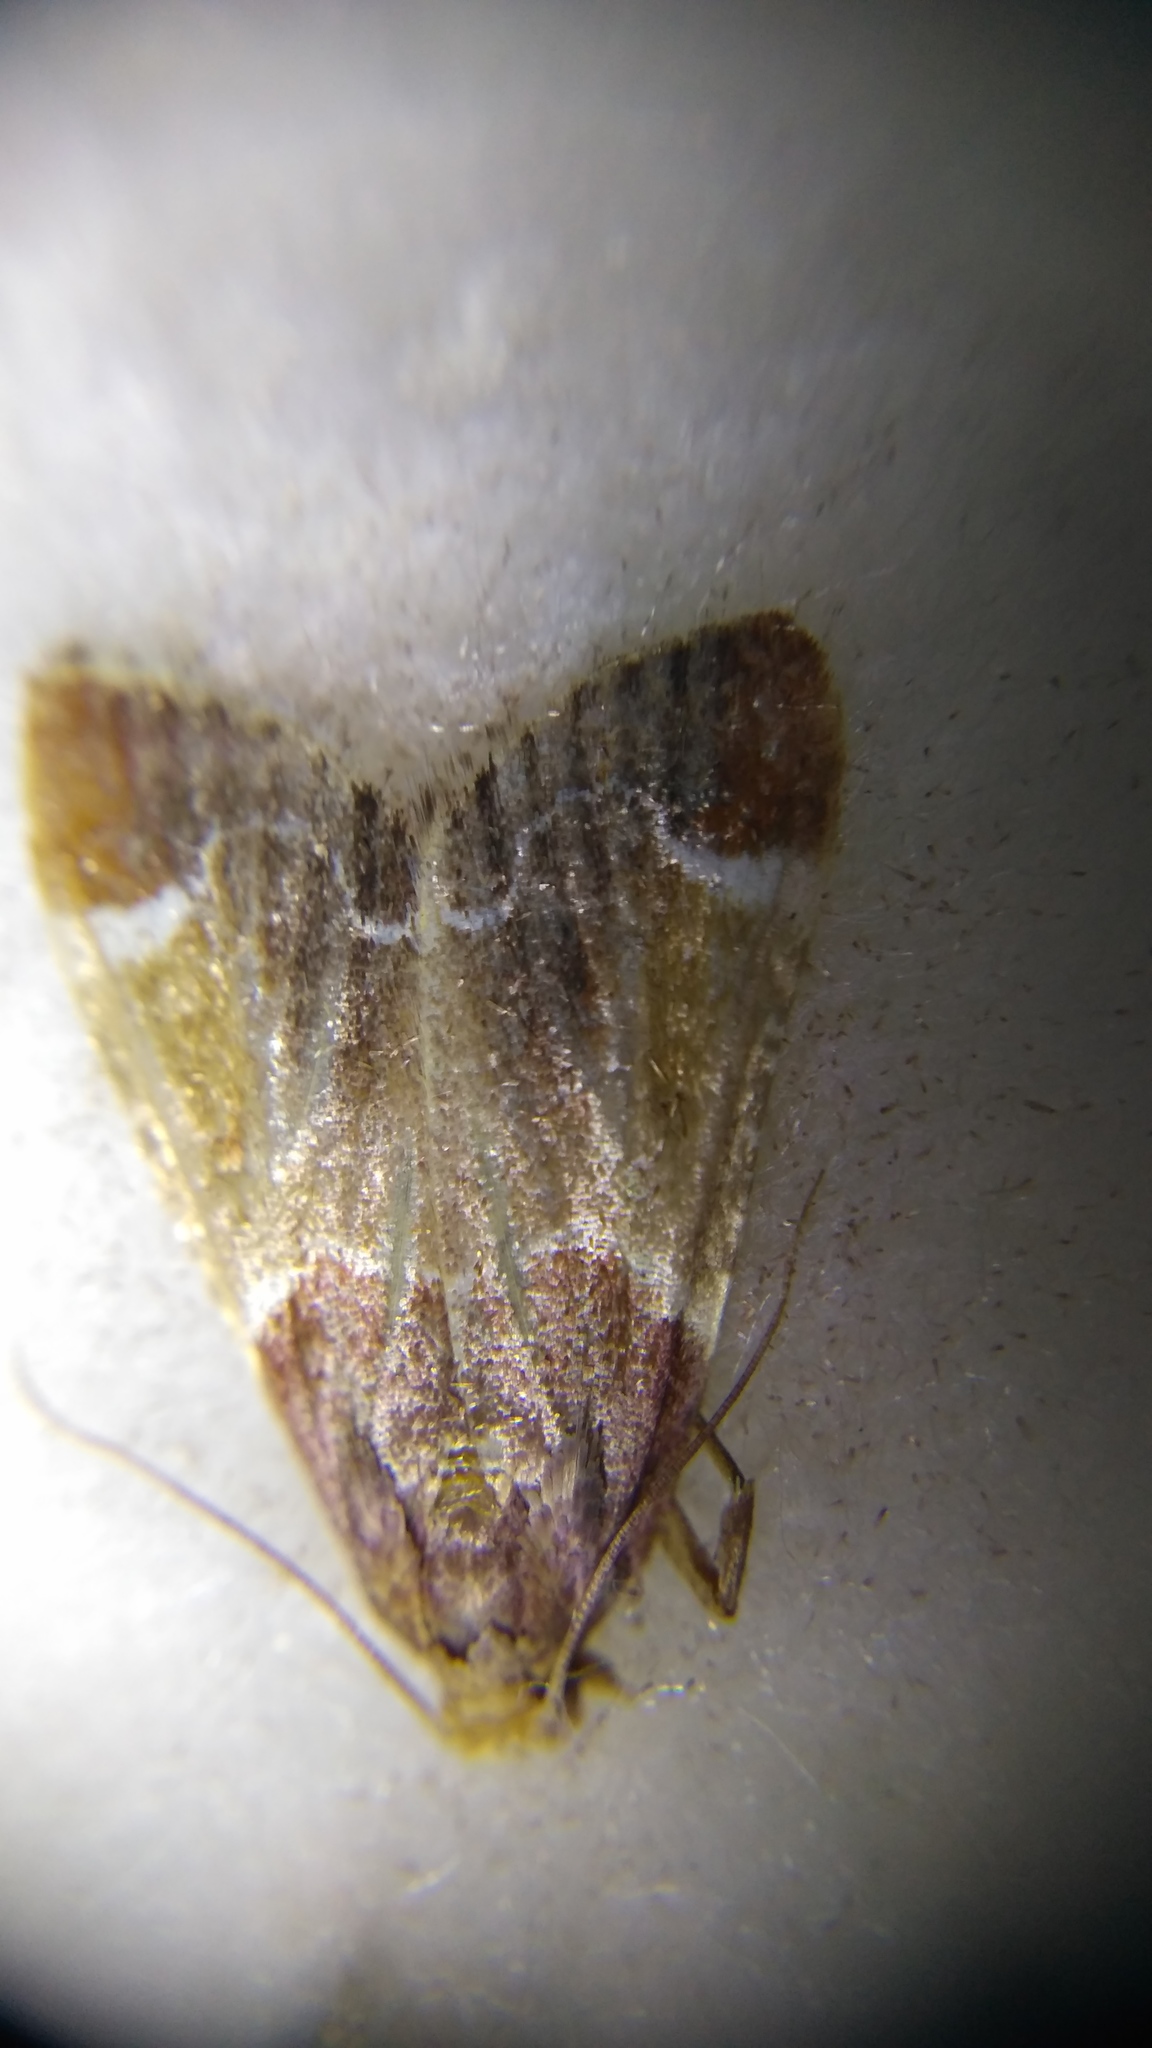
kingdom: Animalia
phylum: Arthropoda
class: Insecta
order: Lepidoptera
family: Pyralidae
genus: Pyralis
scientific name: Pyralis farinalis
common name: Meal moth
